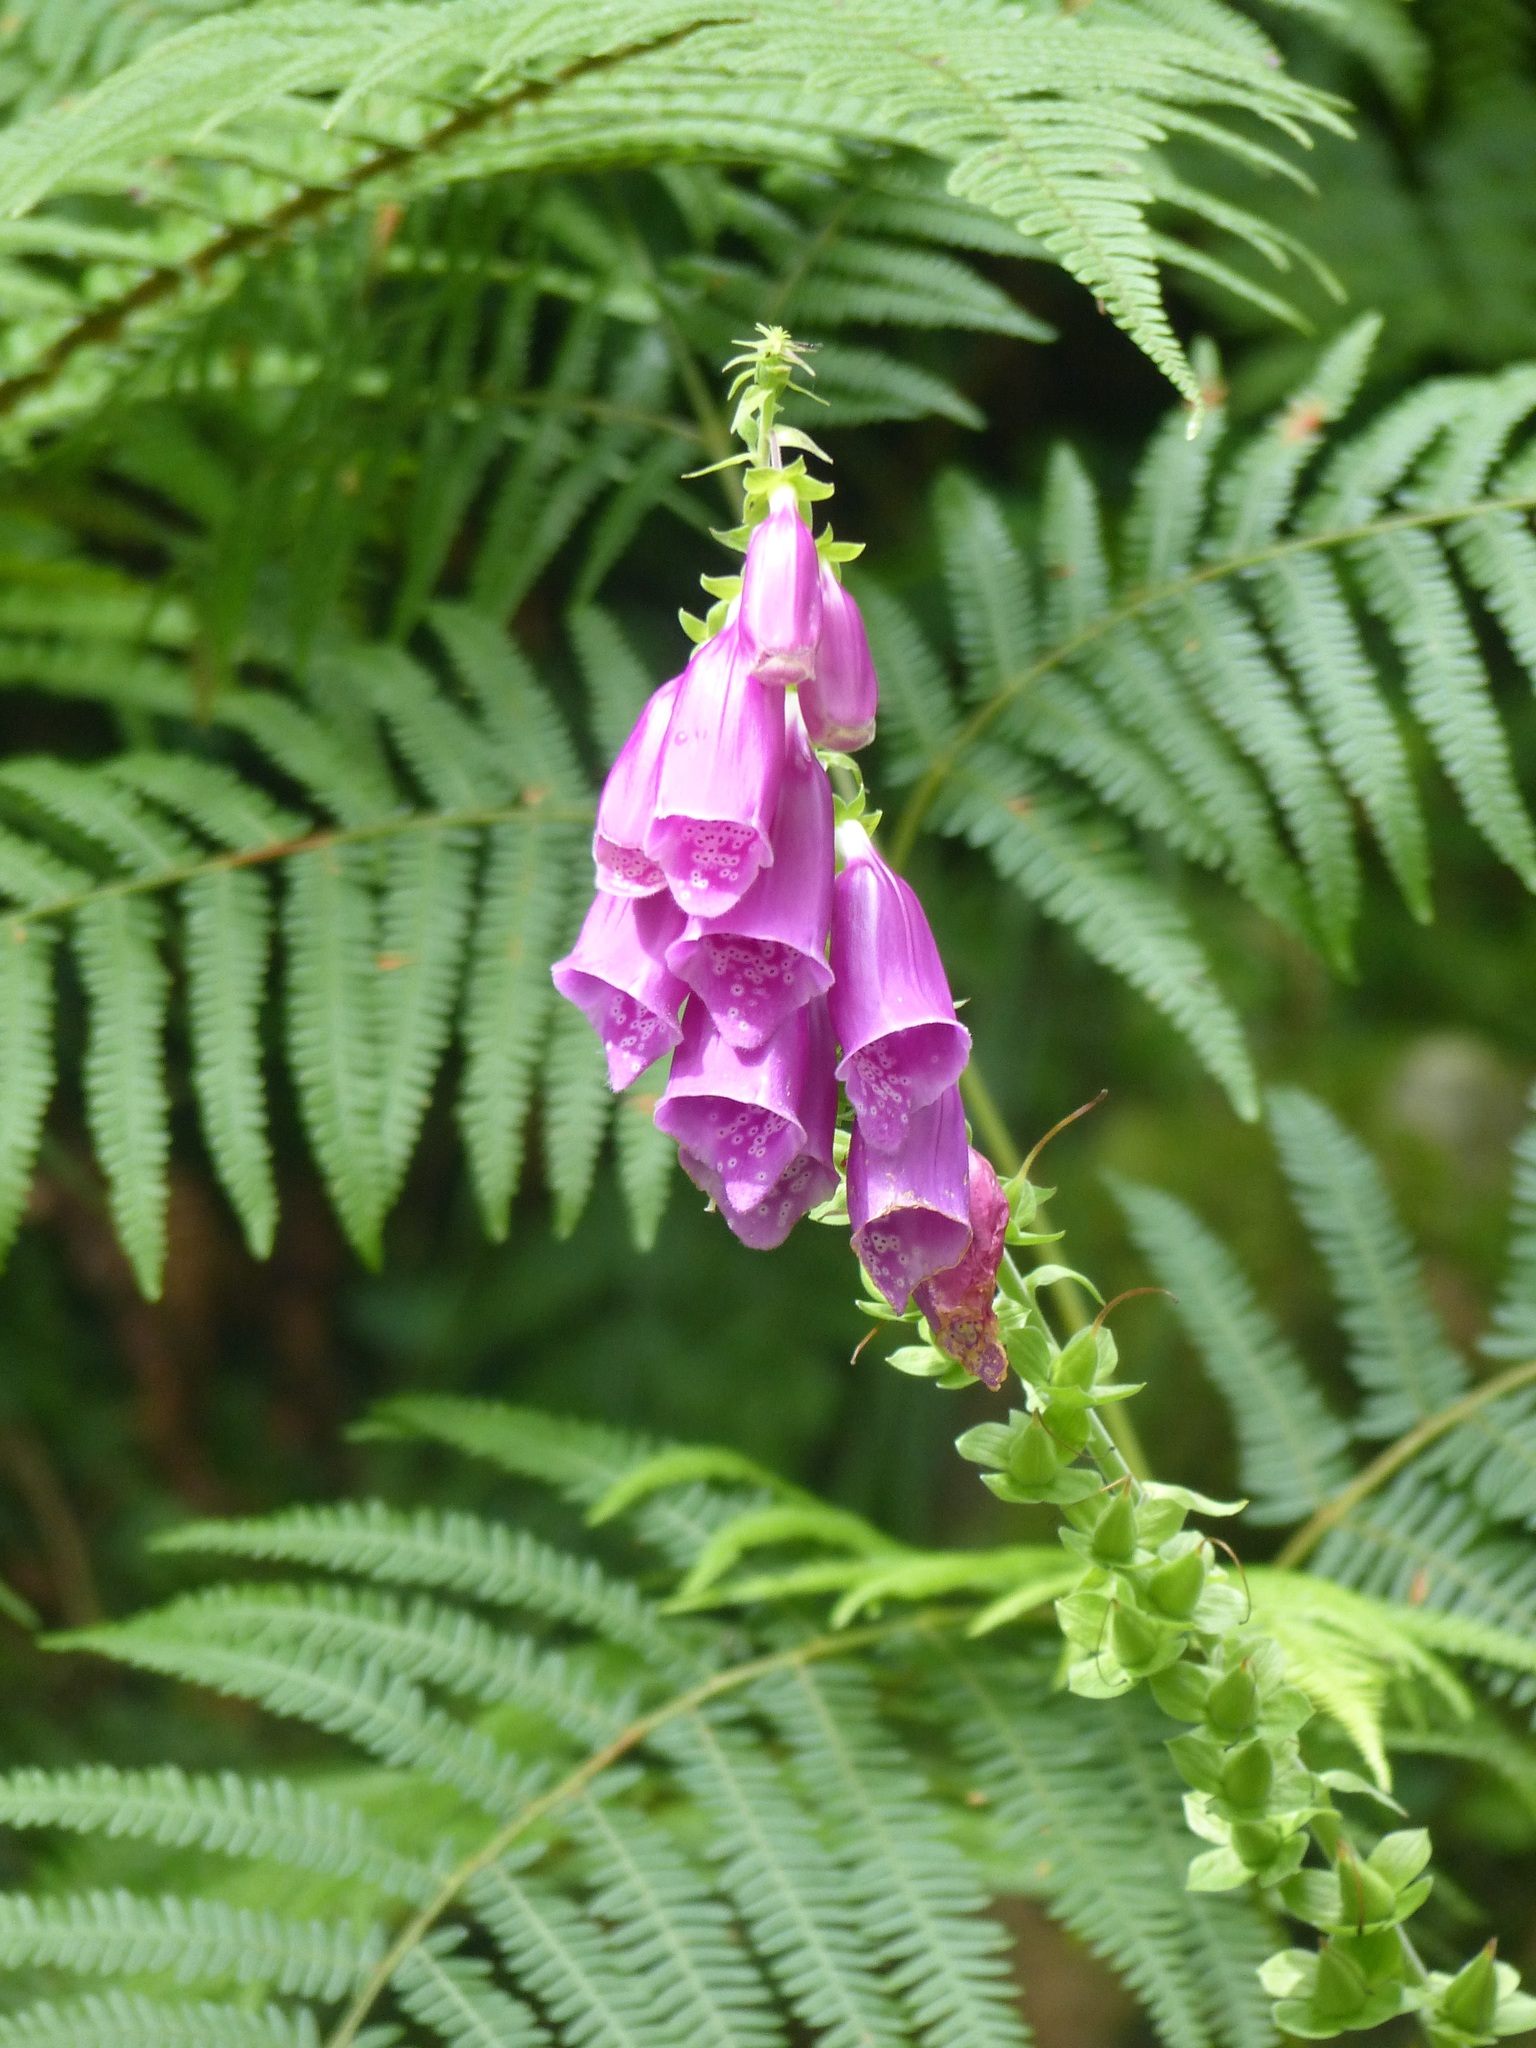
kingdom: Plantae
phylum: Tracheophyta
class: Magnoliopsida
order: Lamiales
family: Plantaginaceae
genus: Digitalis
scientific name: Digitalis purpurea
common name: Foxglove
